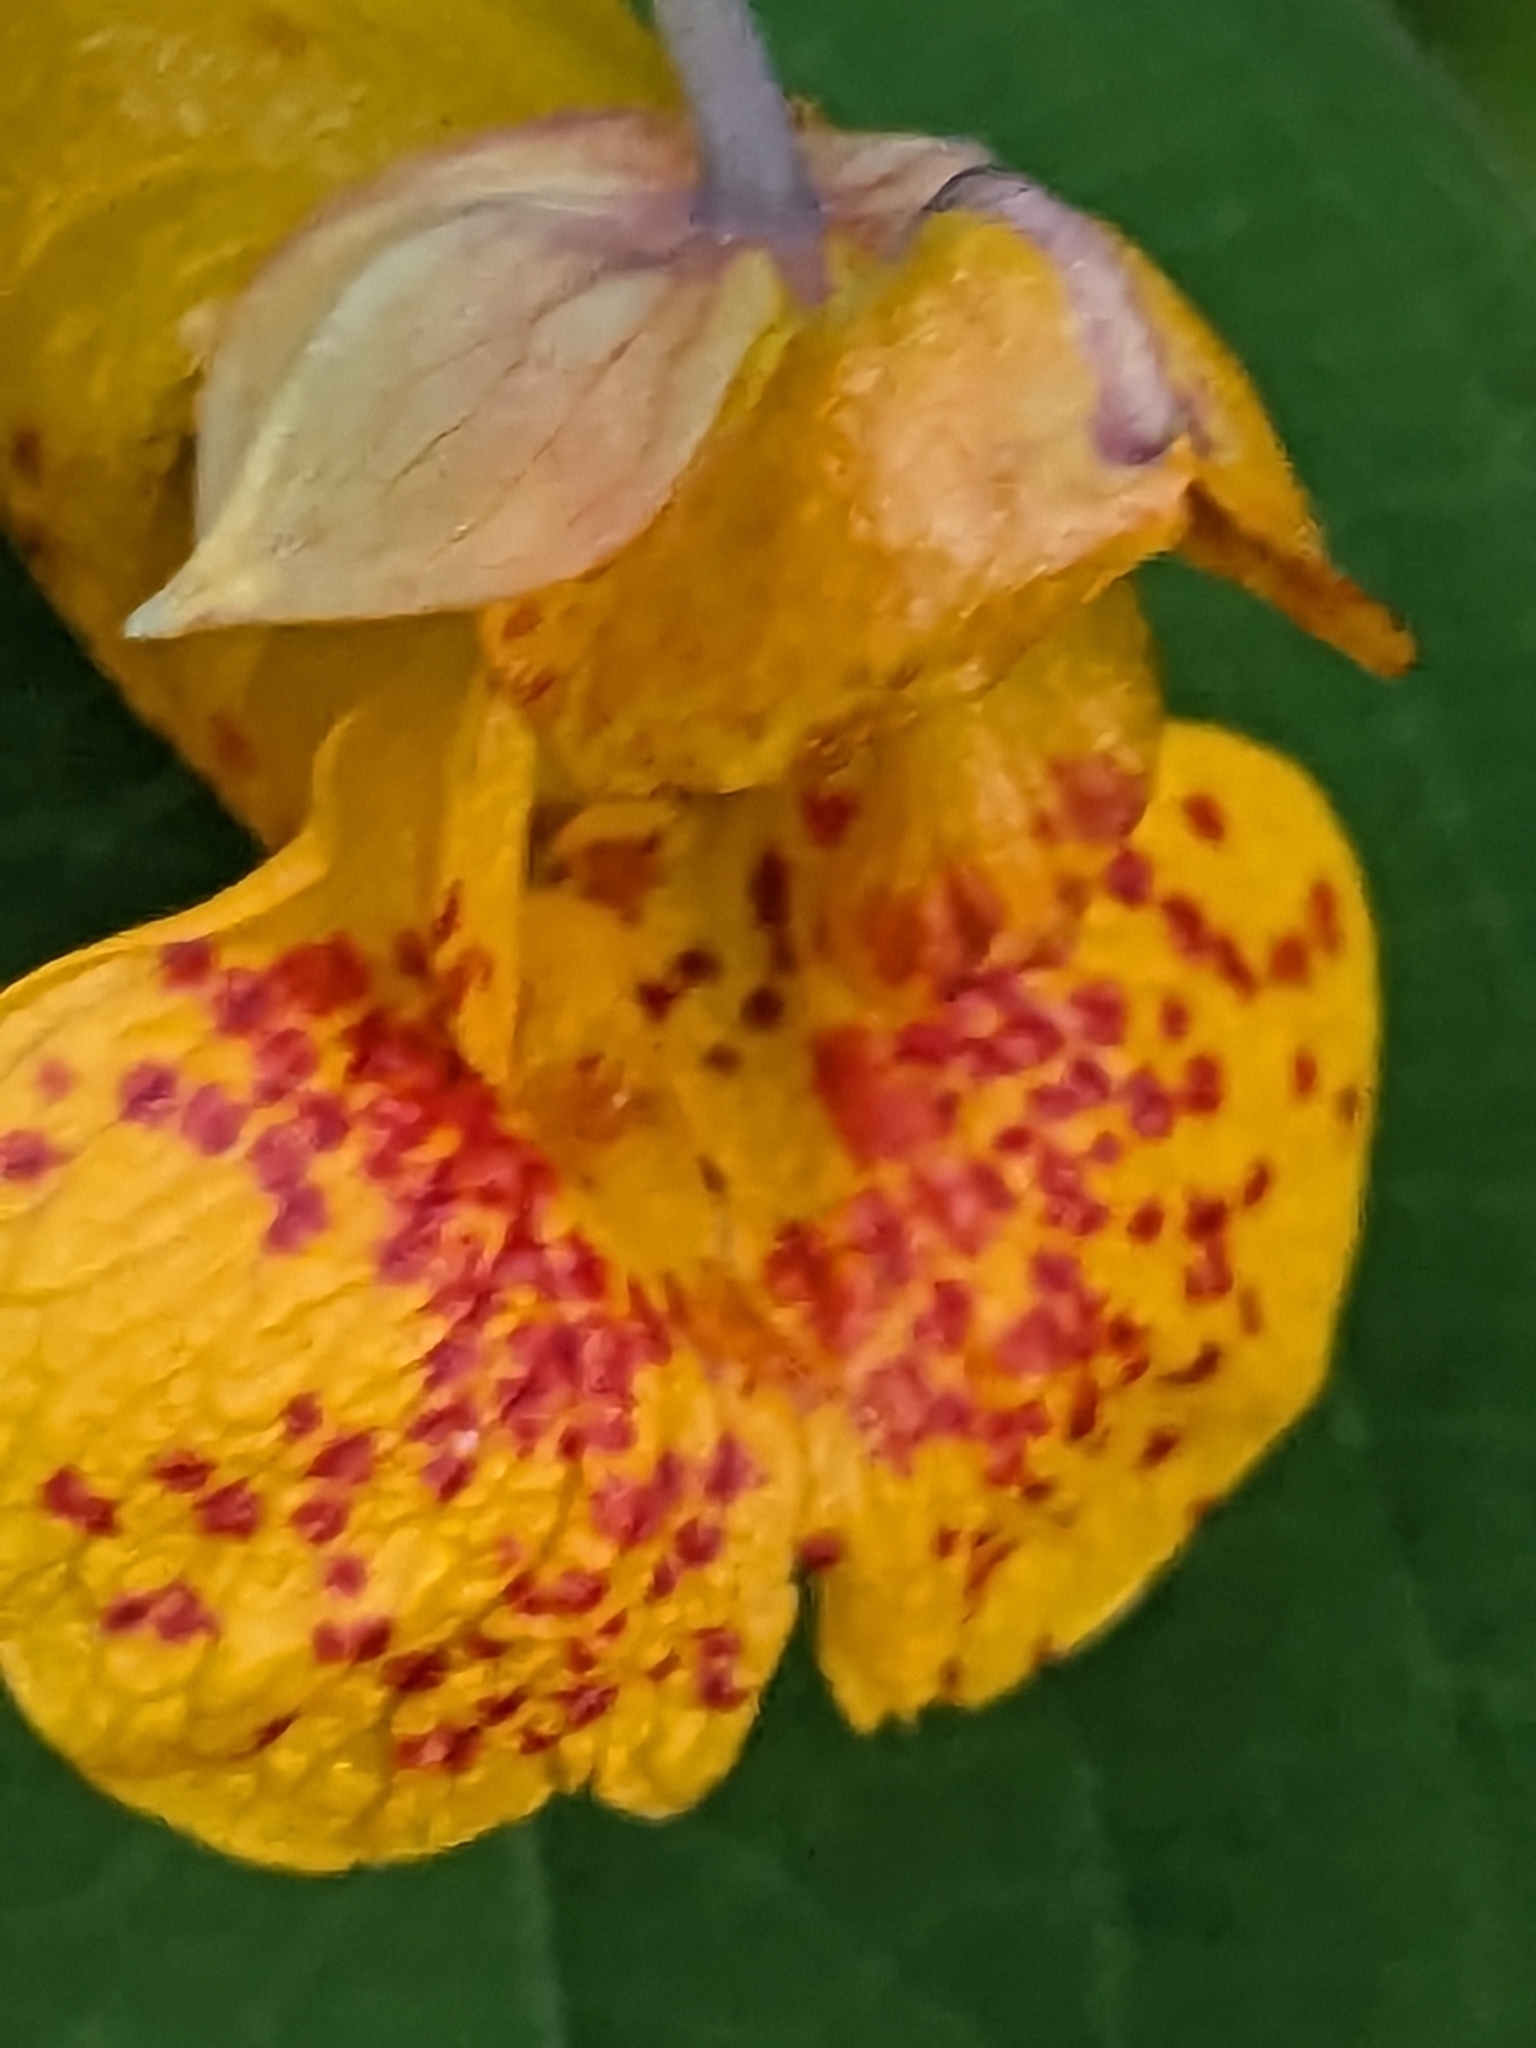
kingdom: Plantae
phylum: Tracheophyta
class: Magnoliopsida
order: Ericales
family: Balsaminaceae
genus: Impatiens
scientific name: Impatiens capensis
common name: Orange balsam
